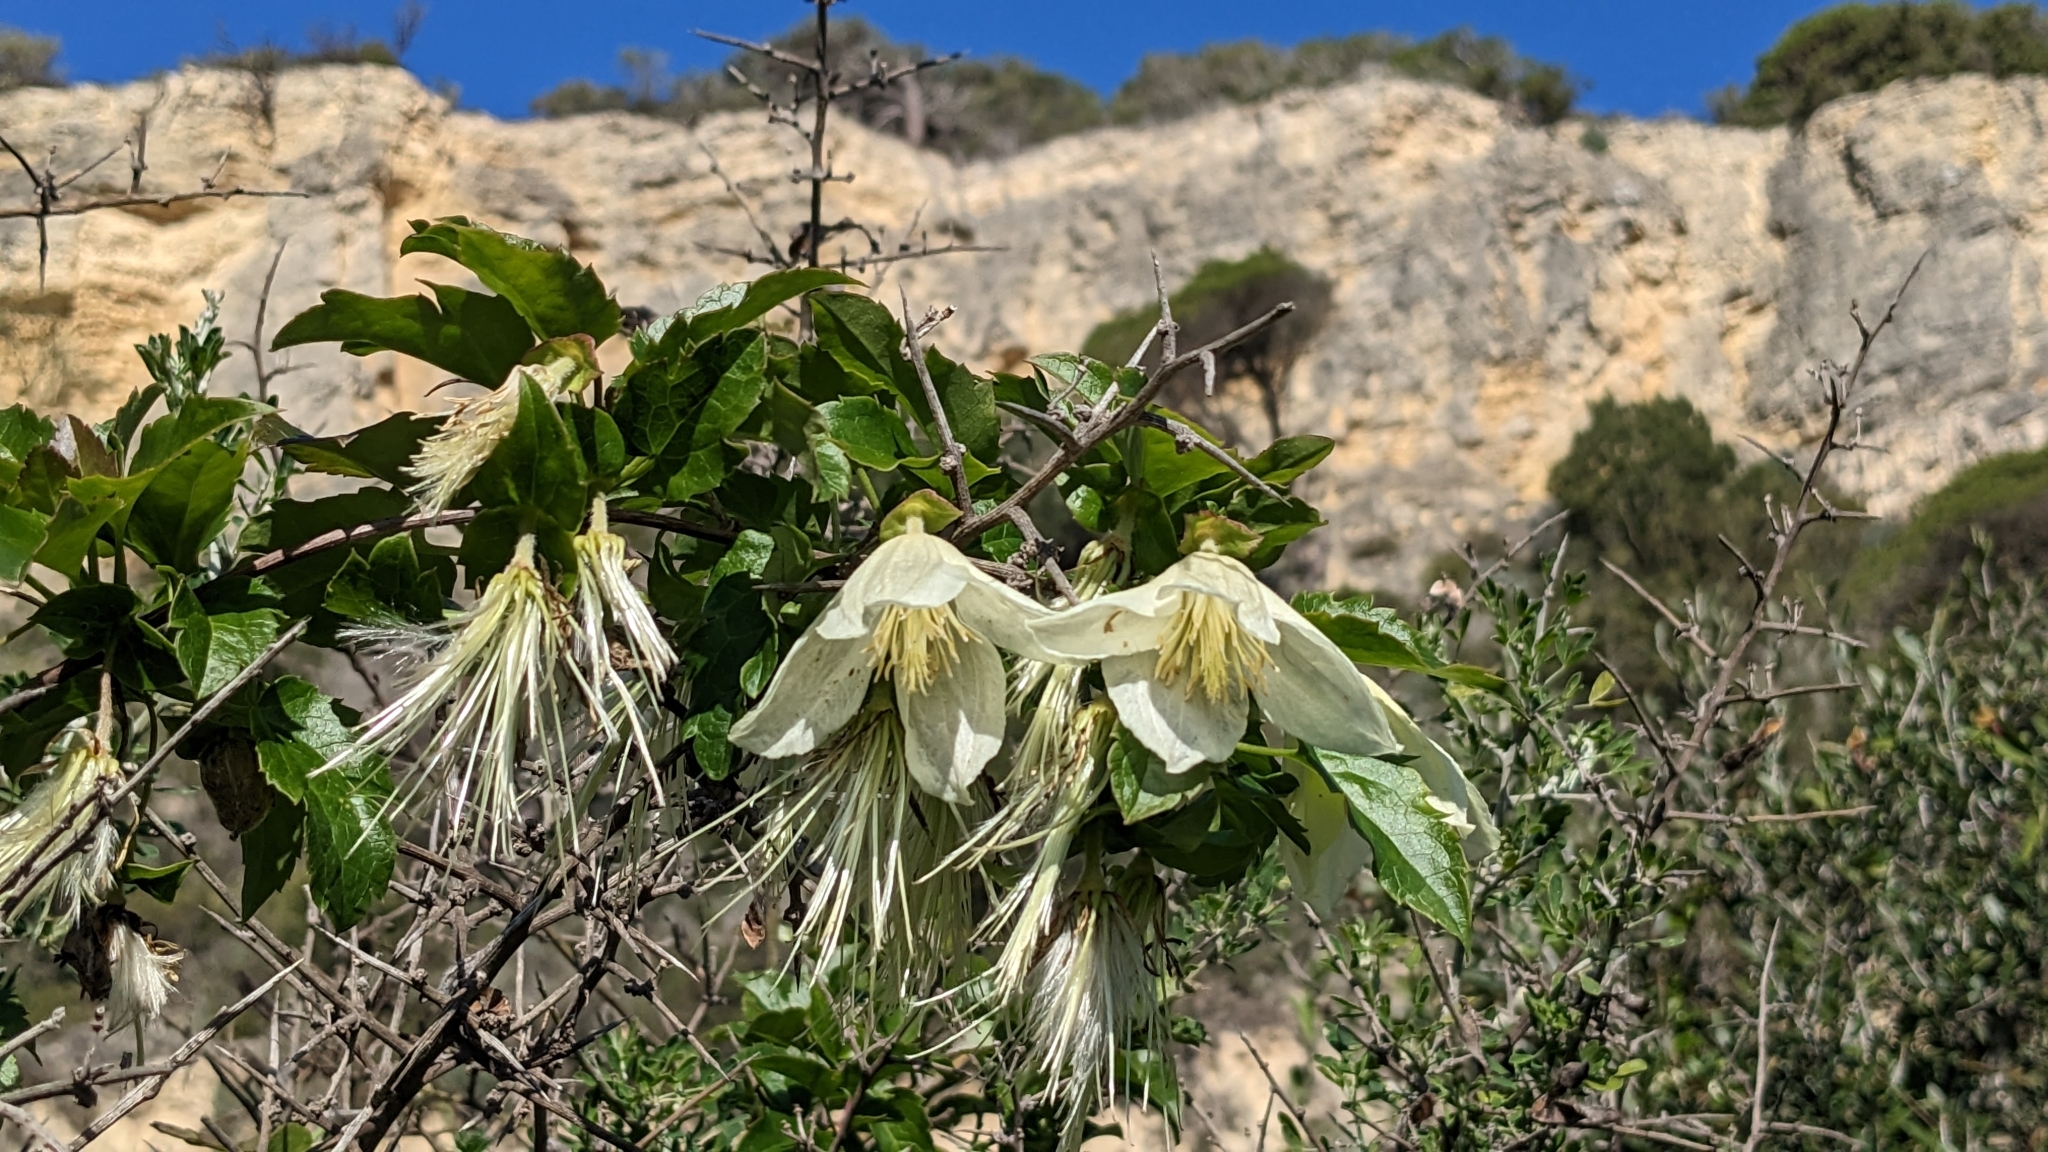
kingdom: Plantae
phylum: Tracheophyta
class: Magnoliopsida
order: Ranunculales
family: Ranunculaceae
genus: Clematis
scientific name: Clematis cirrhosa
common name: Early virgin's-bower
